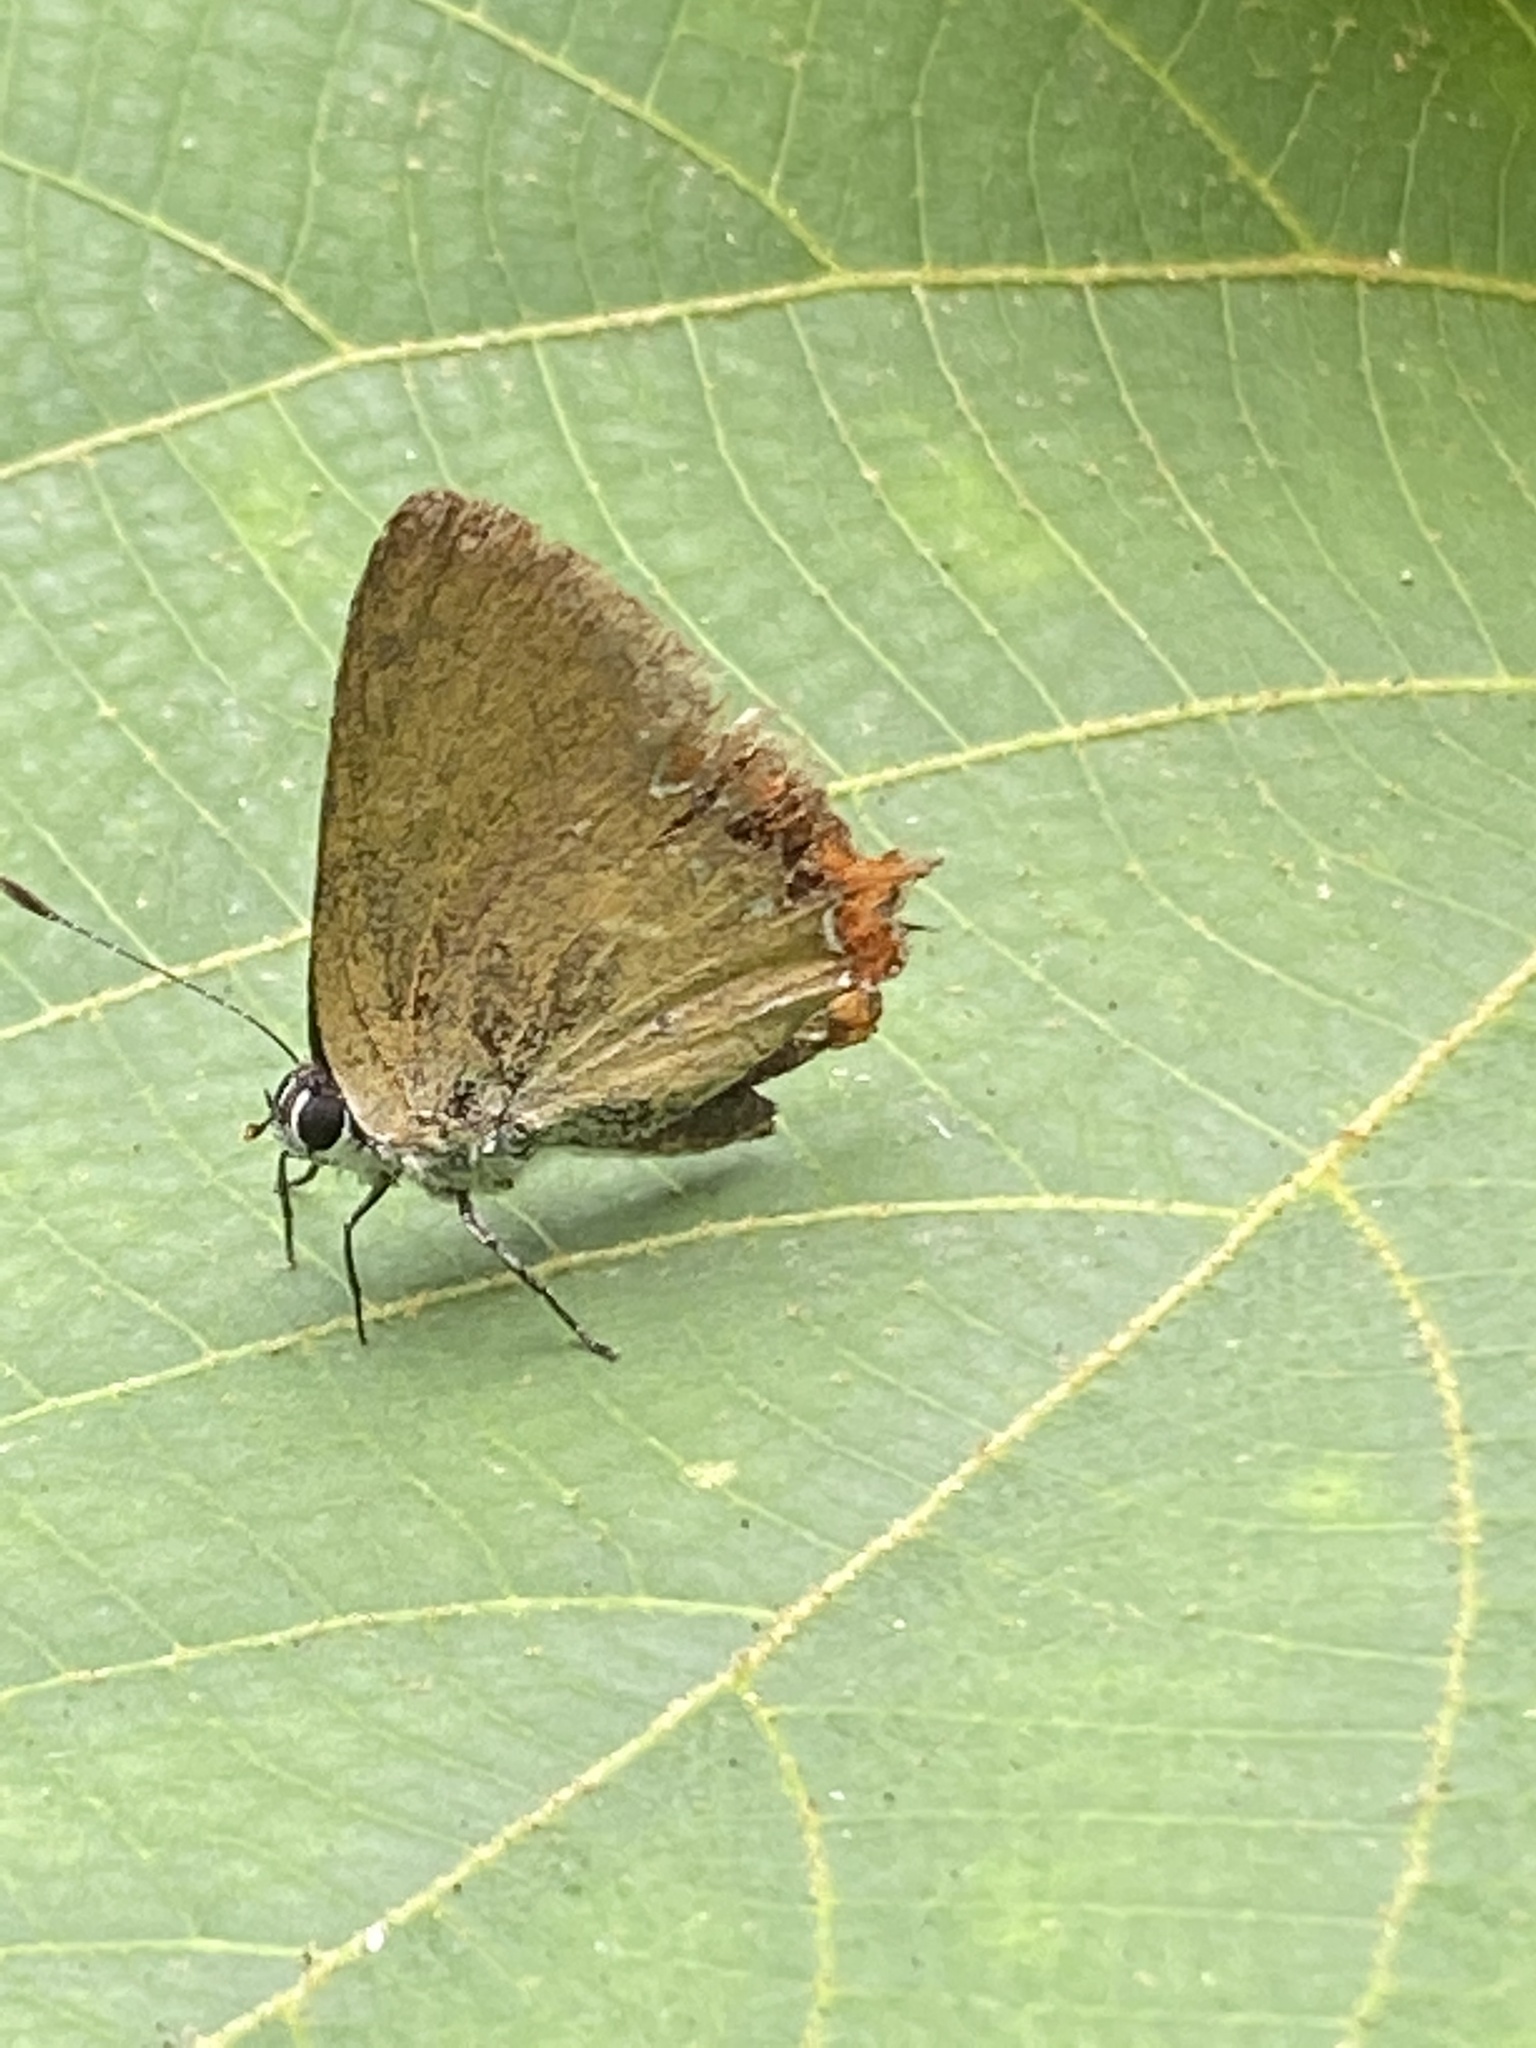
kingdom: Animalia
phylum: Arthropoda
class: Insecta
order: Lepidoptera
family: Lycaenidae
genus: Heliophorus
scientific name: Heliophorus ila
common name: Restricted purple sapphire
